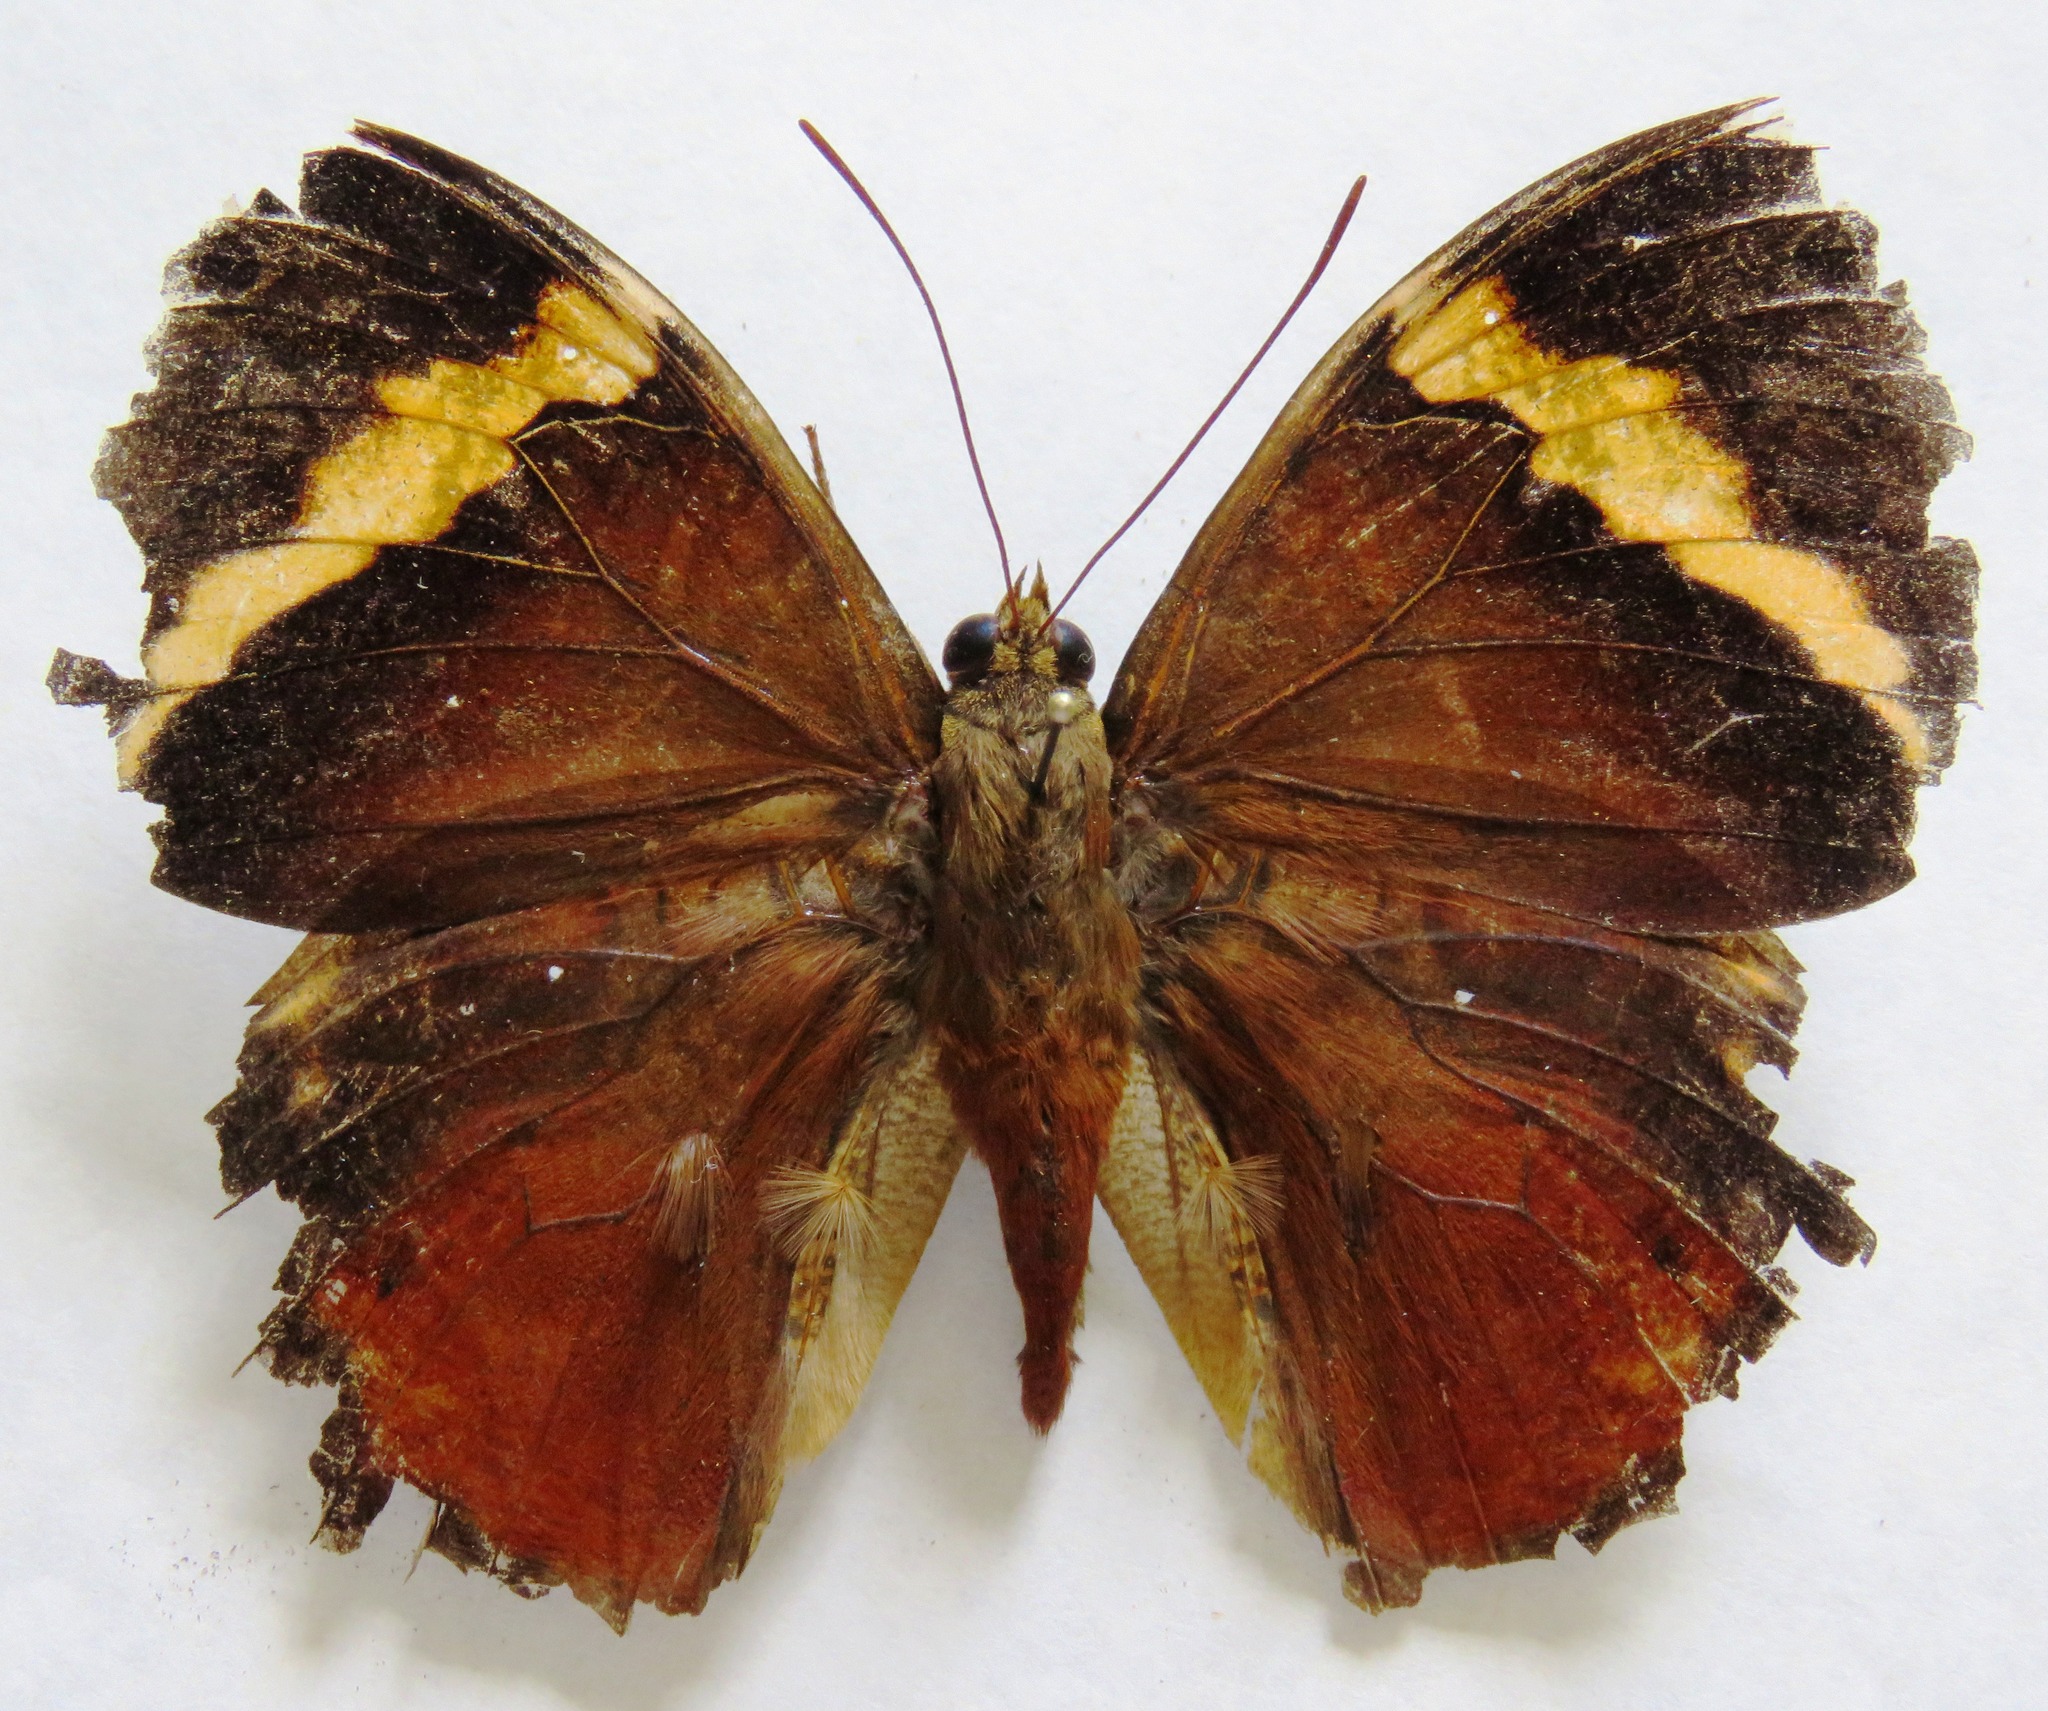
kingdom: Animalia
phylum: Arthropoda
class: Insecta
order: Lepidoptera
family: Nymphalidae
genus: Opsiphanes
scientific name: Opsiphanes quiteria
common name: Scalloped owlet
